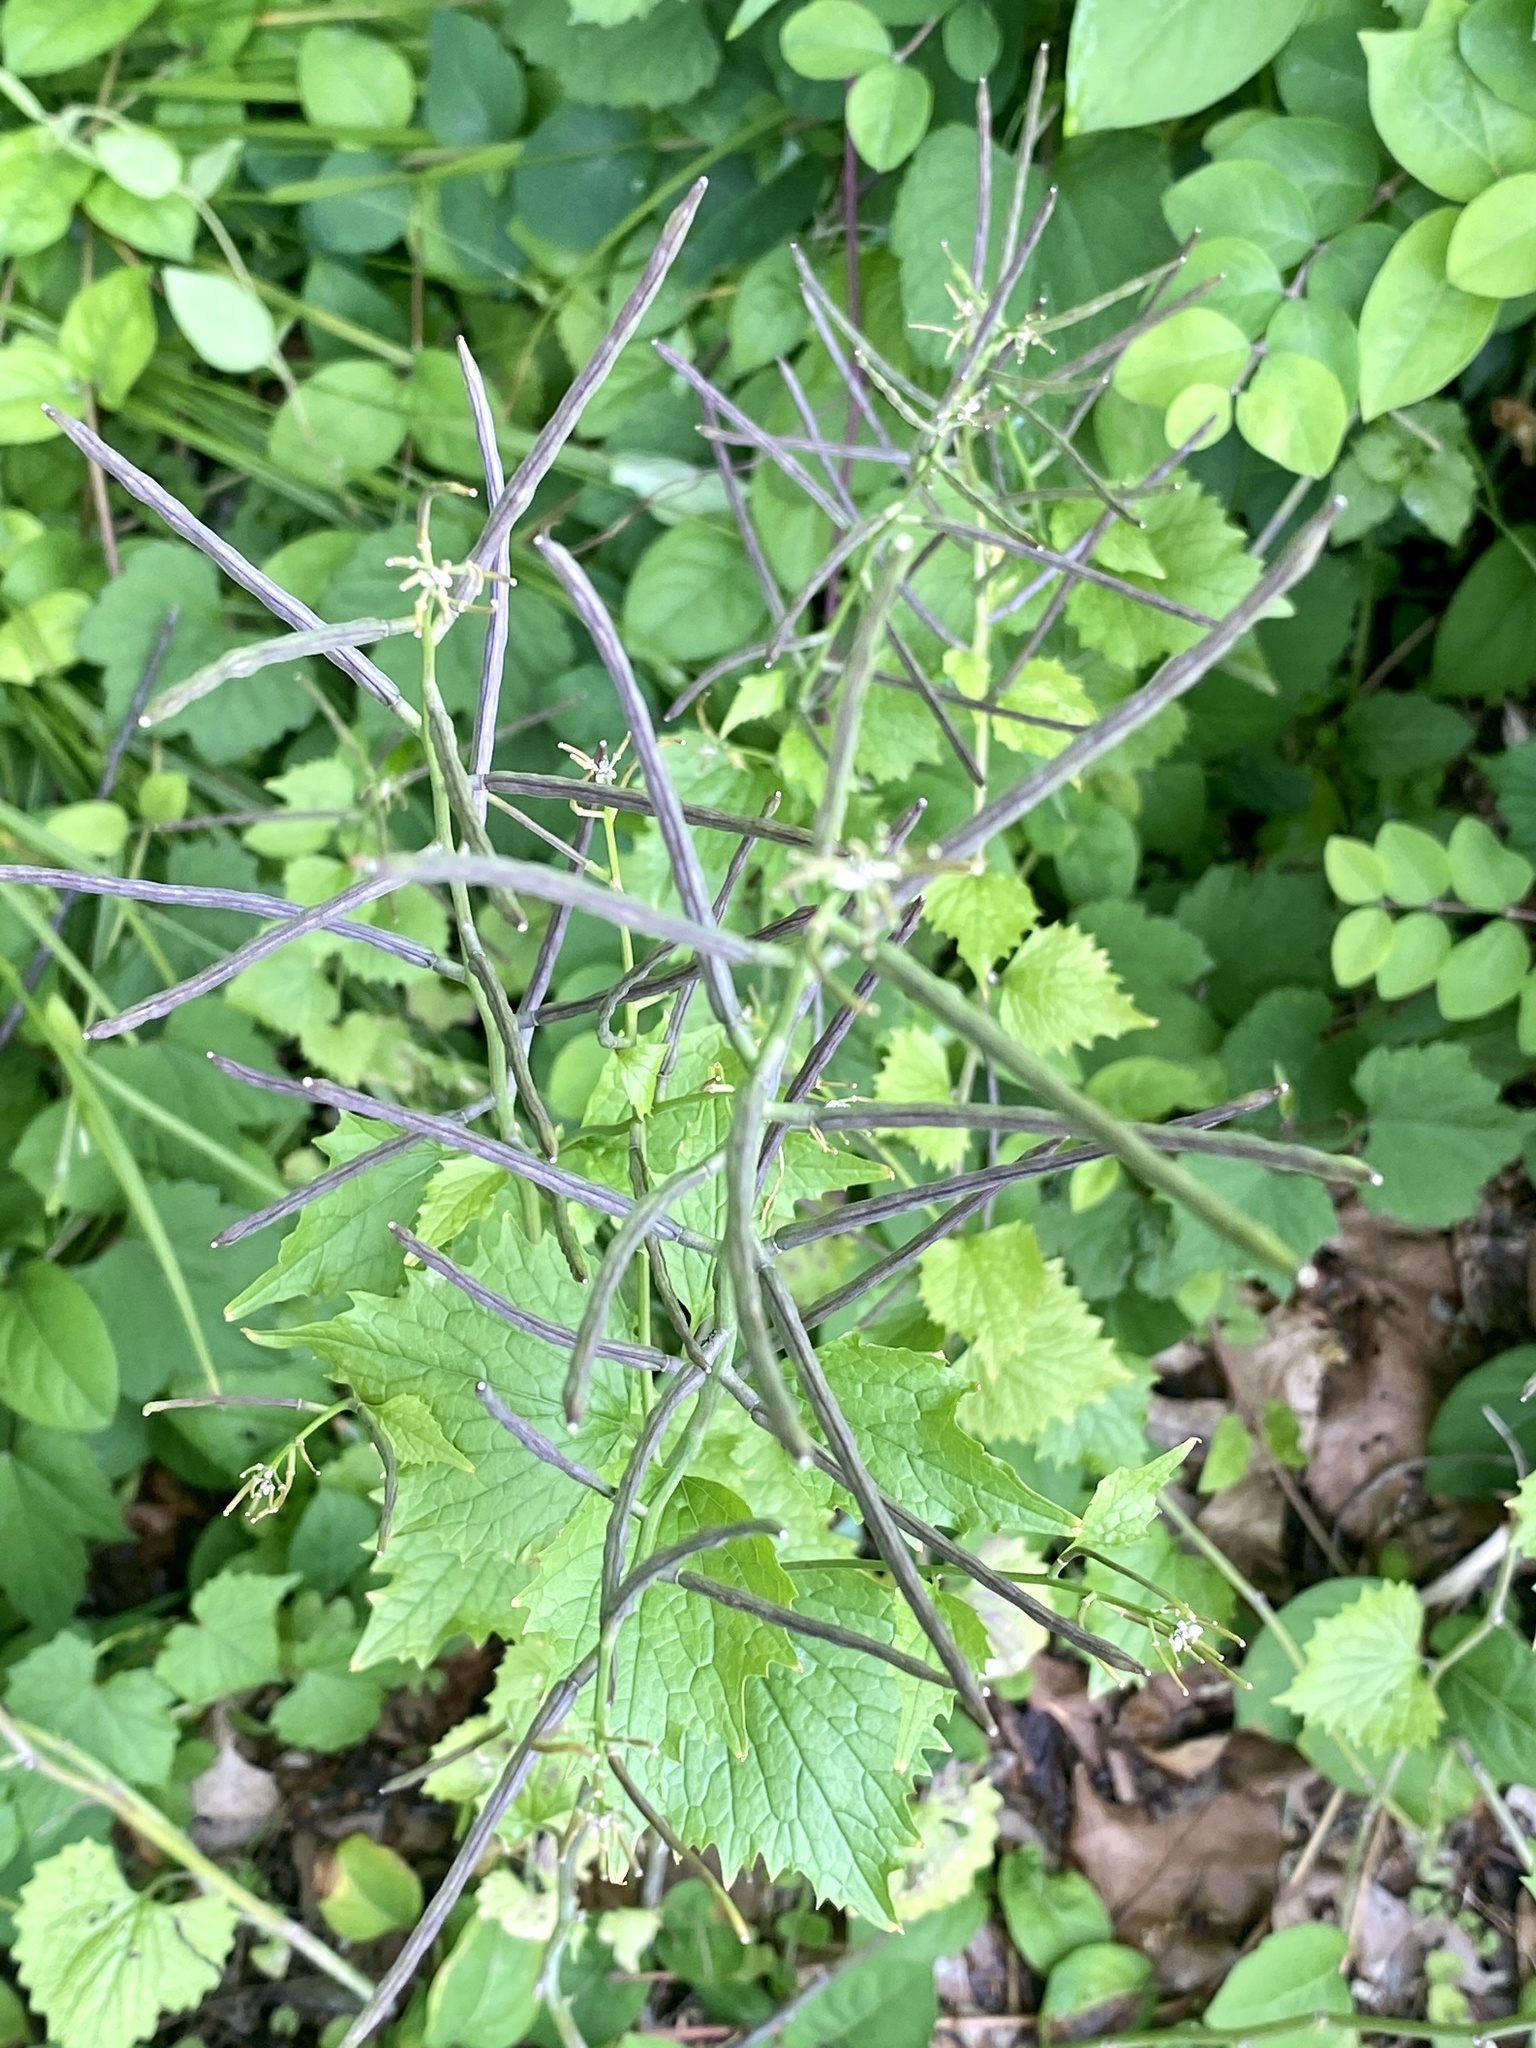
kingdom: Plantae
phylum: Tracheophyta
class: Magnoliopsida
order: Brassicales
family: Brassicaceae
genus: Alliaria
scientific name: Alliaria petiolata
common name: Garlic mustard
